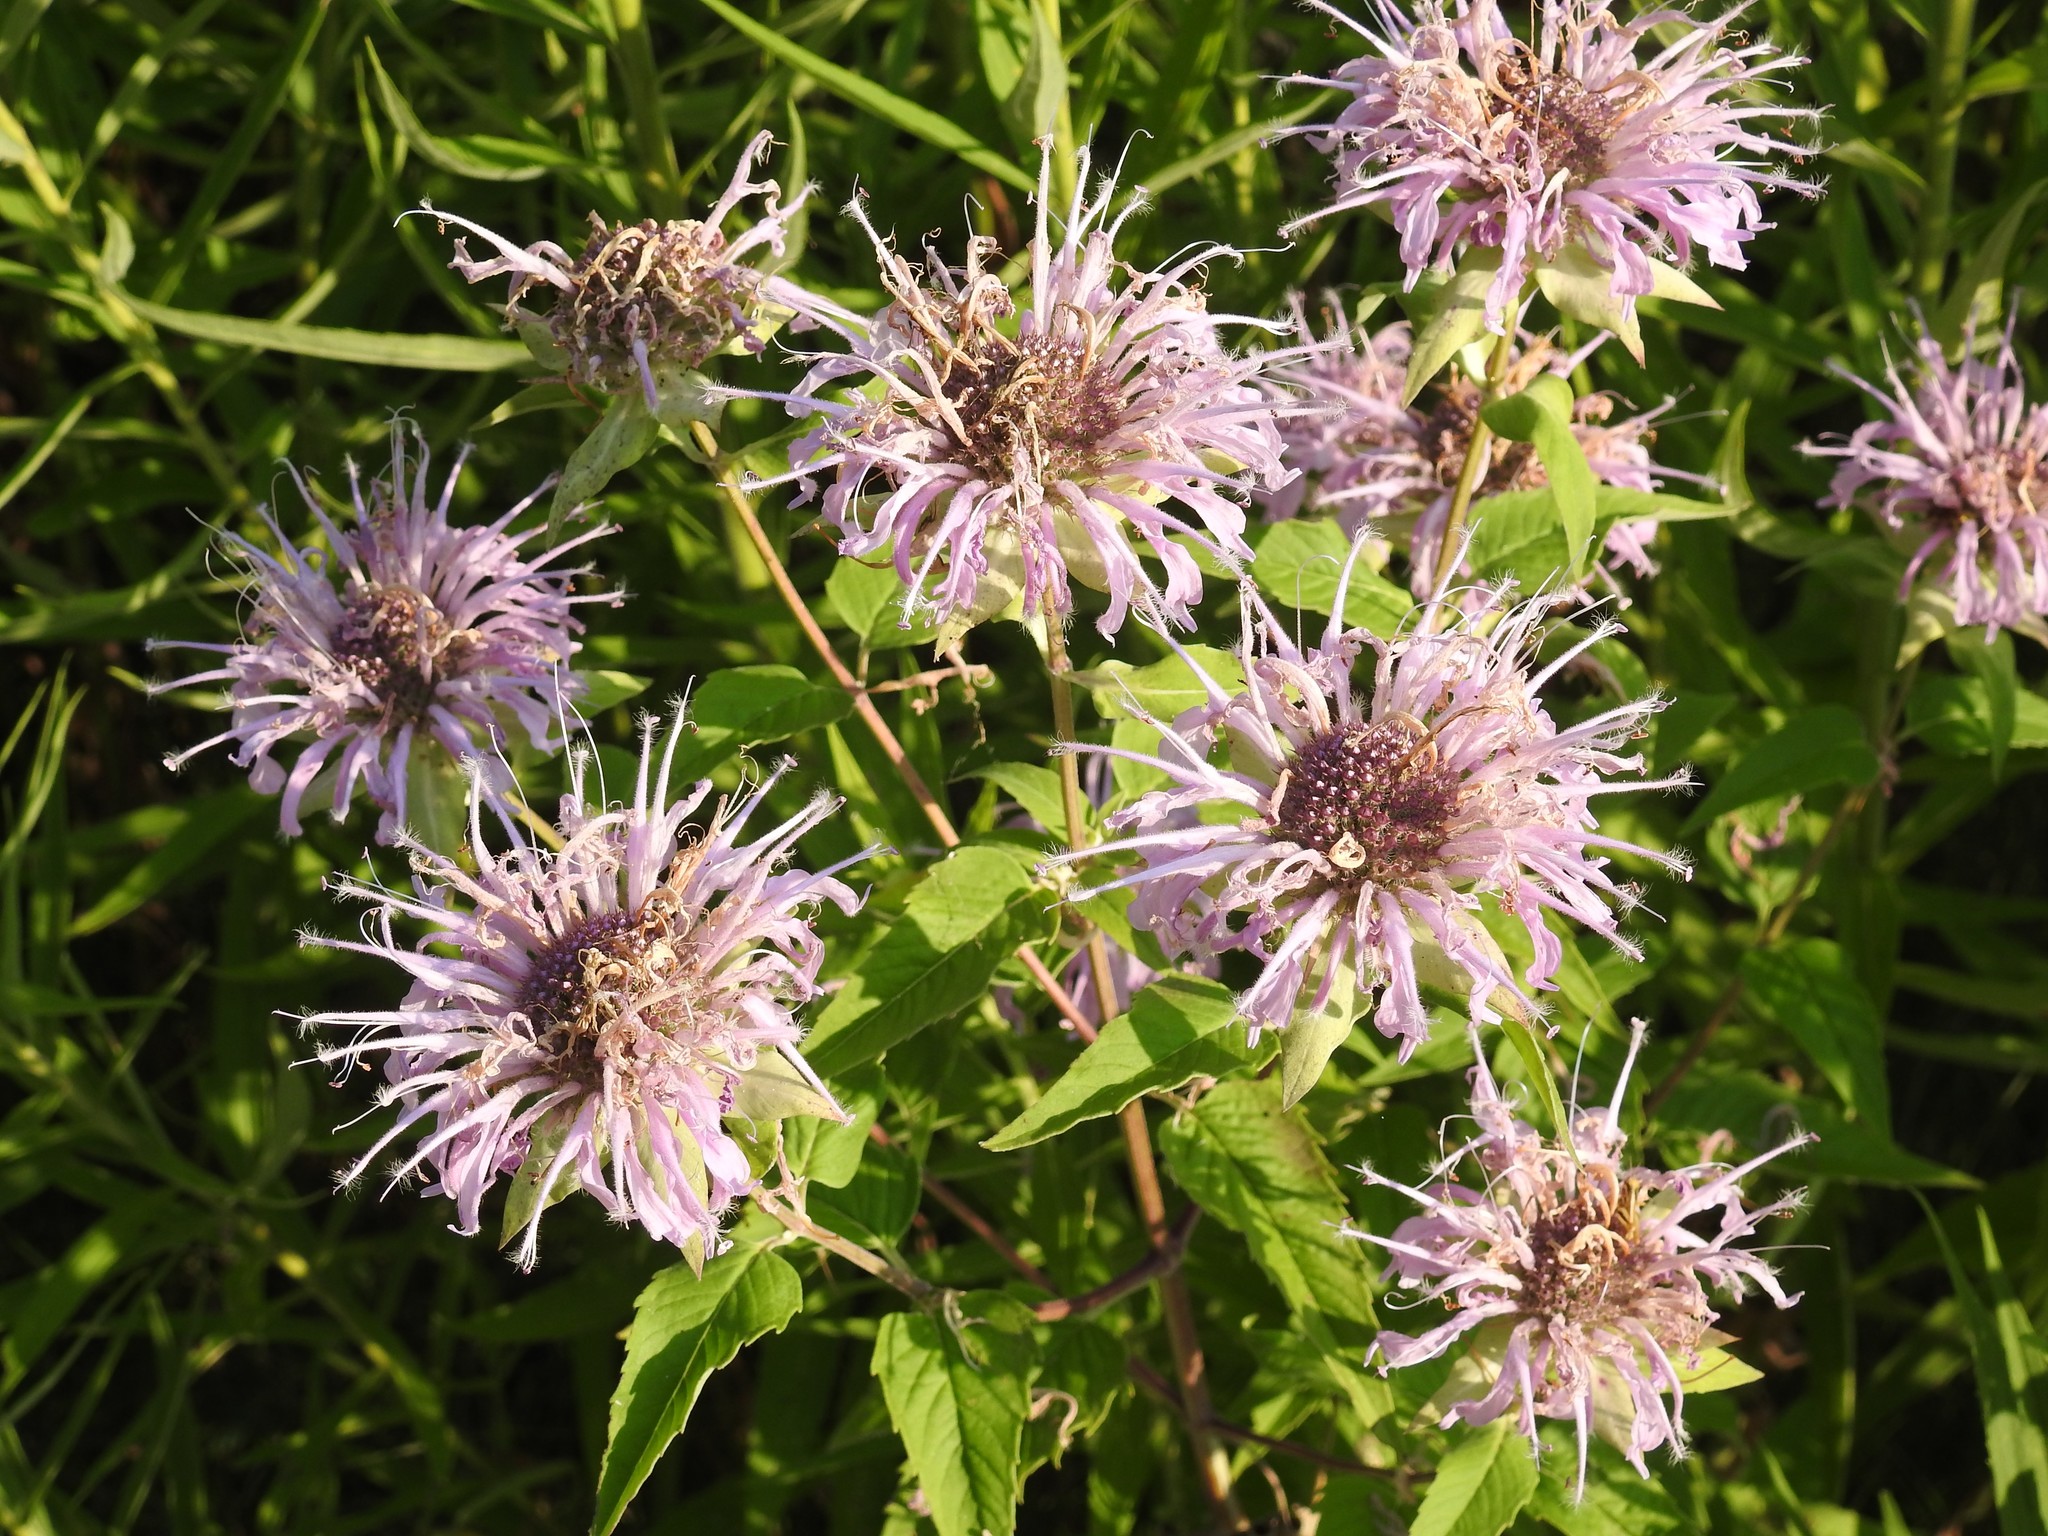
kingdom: Plantae
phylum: Tracheophyta
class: Magnoliopsida
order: Lamiales
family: Lamiaceae
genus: Monarda
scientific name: Monarda fistulosa
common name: Purple beebalm
